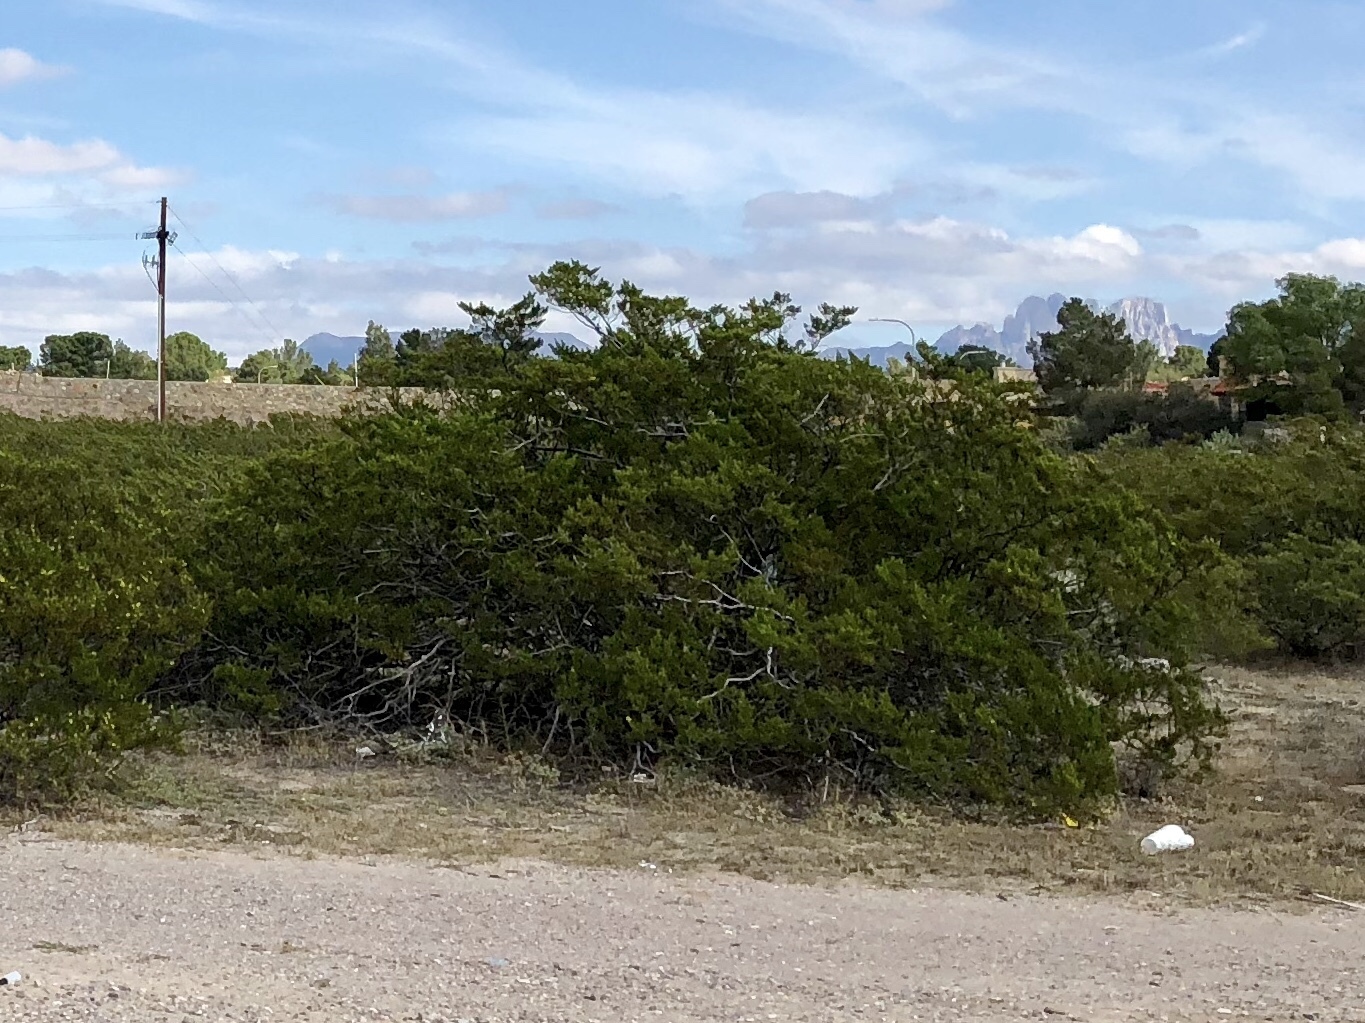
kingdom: Plantae
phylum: Tracheophyta
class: Magnoliopsida
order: Zygophyllales
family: Zygophyllaceae
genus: Larrea
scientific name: Larrea tridentata
